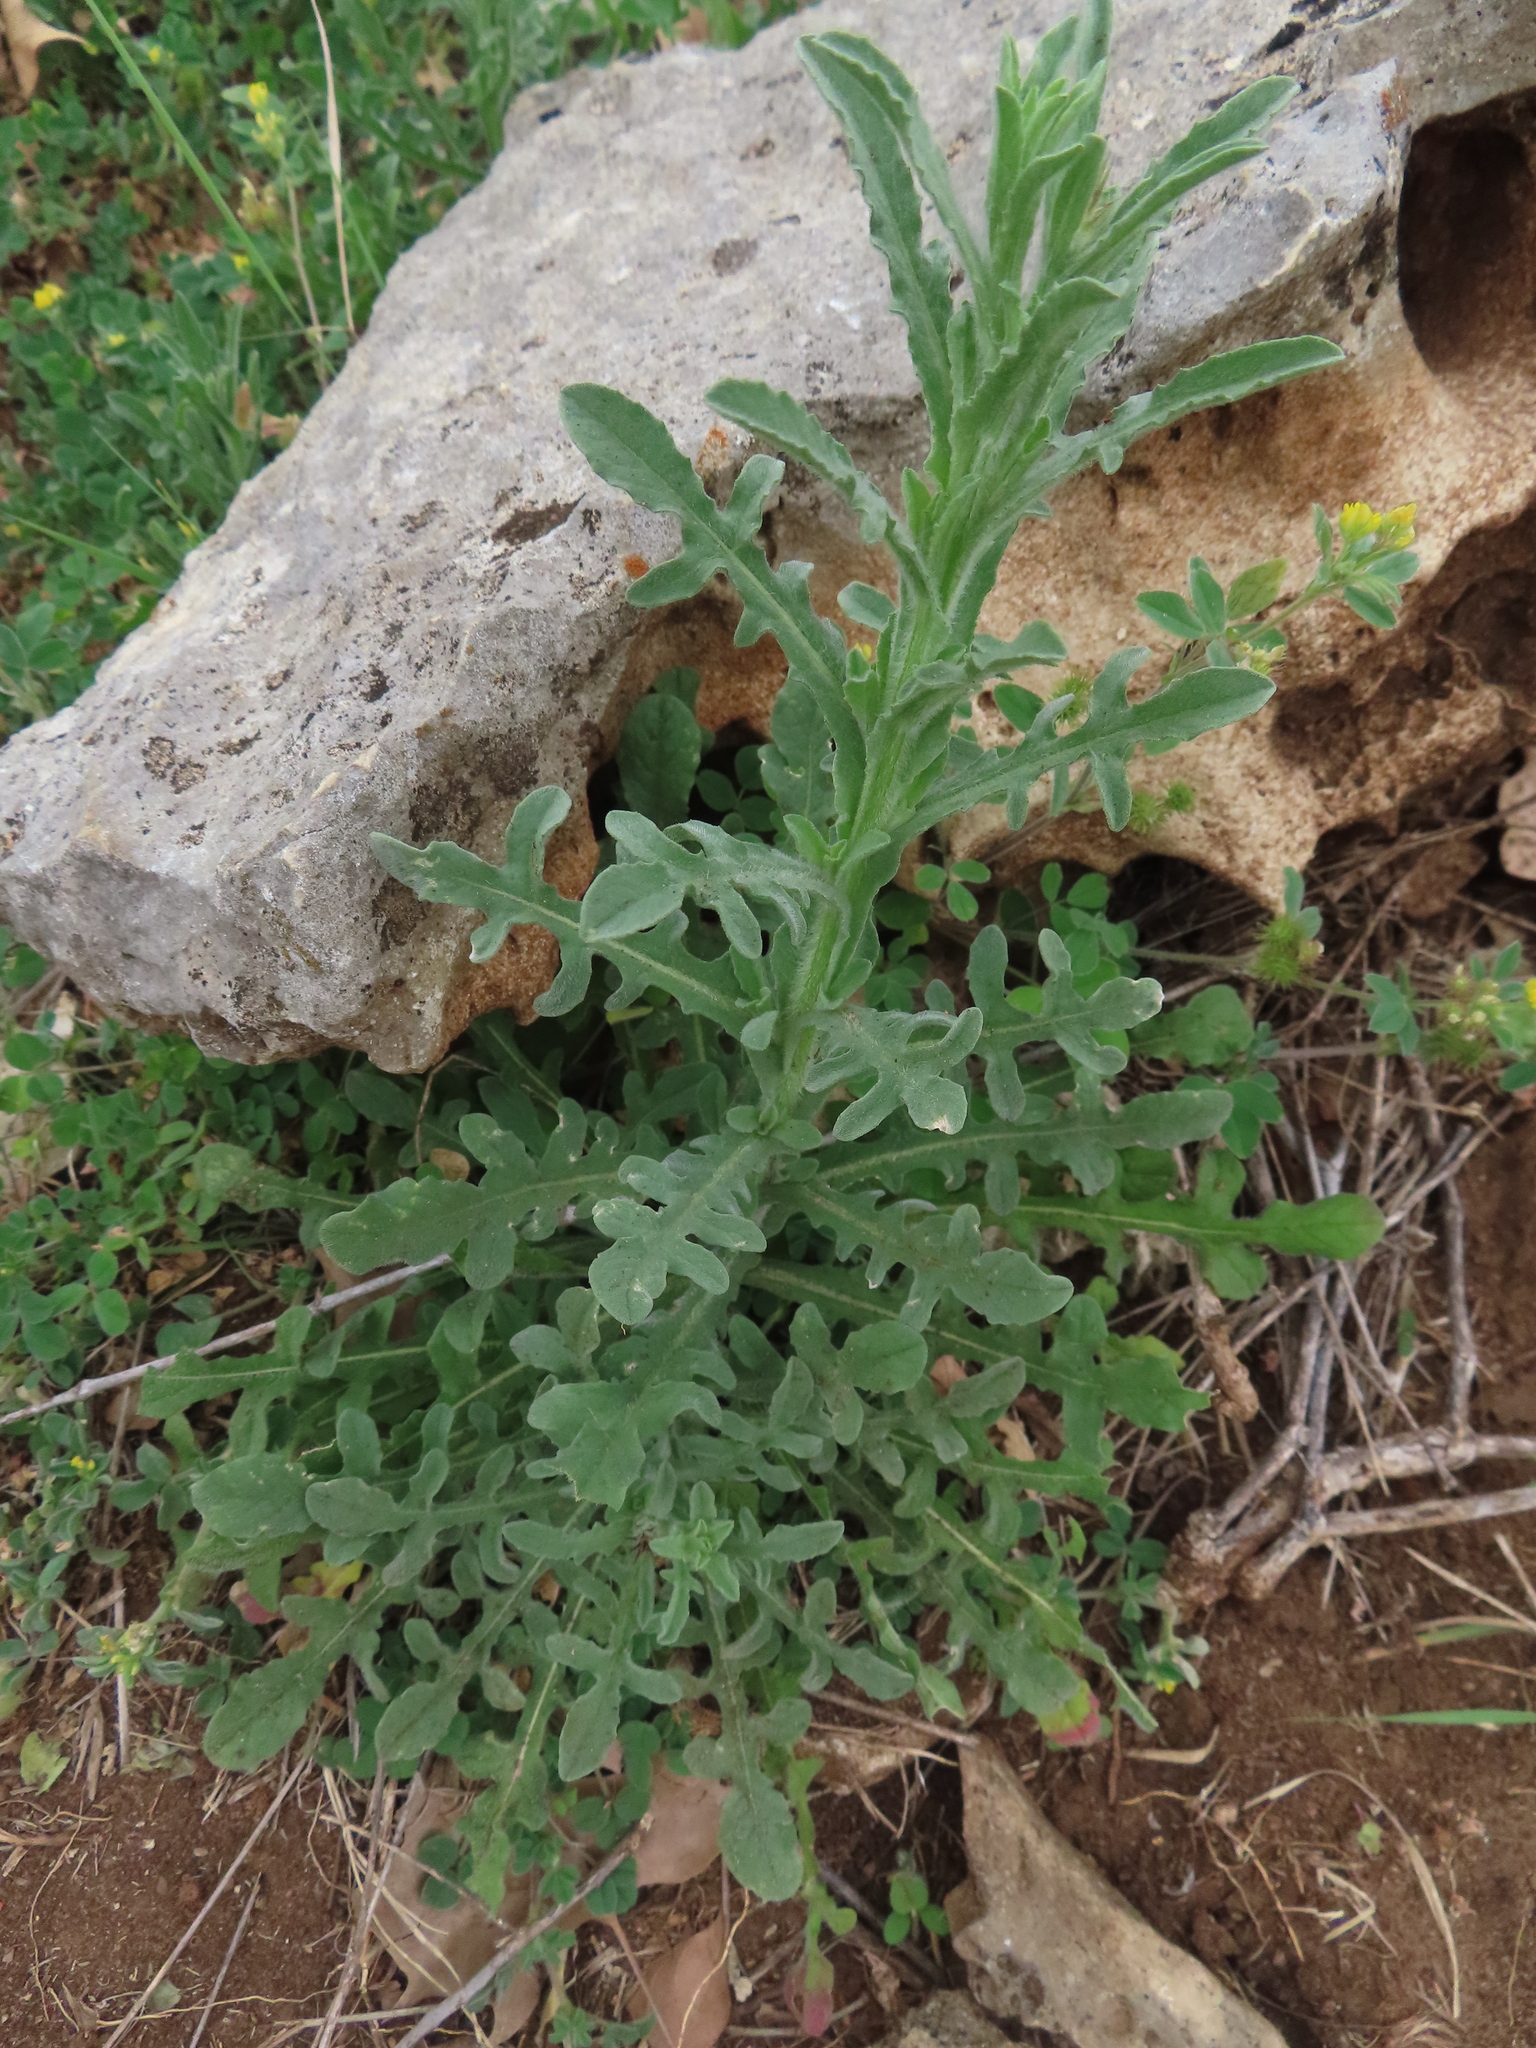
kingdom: Plantae
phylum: Tracheophyta
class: Magnoliopsida
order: Asterales
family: Asteraceae
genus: Centaurea
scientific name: Centaurea melitensis
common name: Maltese star-thistle
